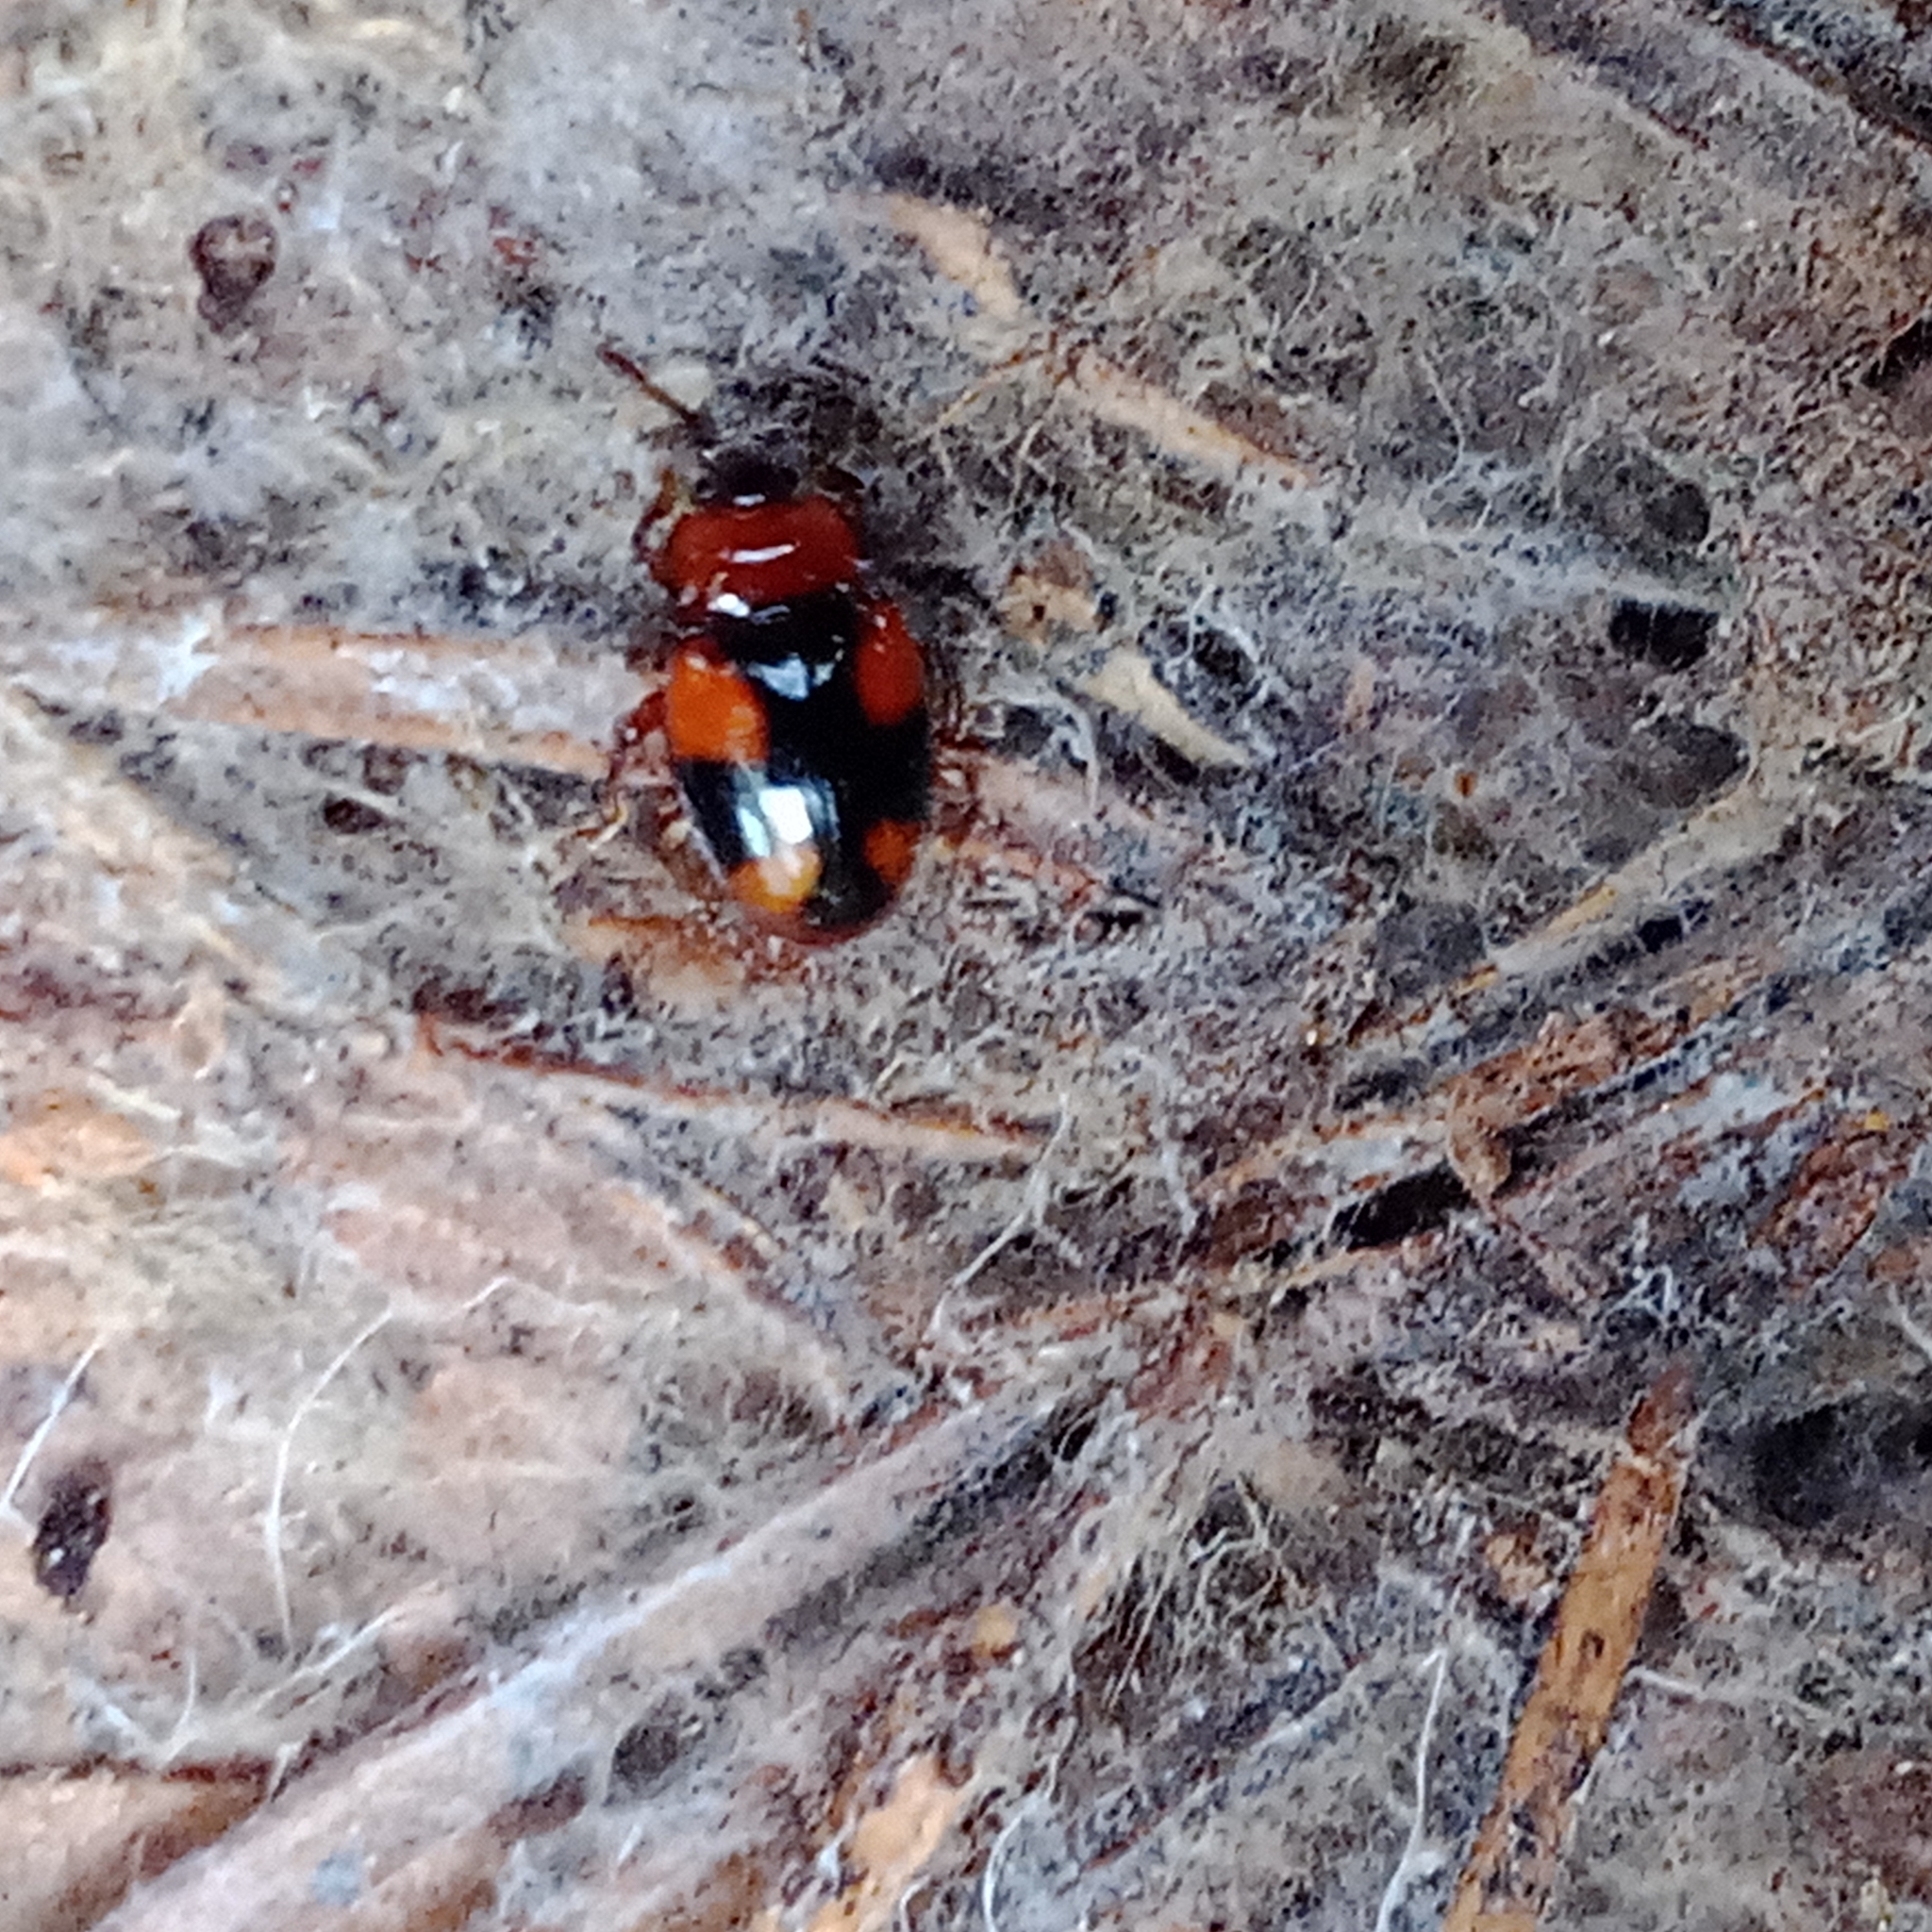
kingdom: Animalia
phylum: Arthropoda
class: Insecta
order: Coleoptera
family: Endomychidae
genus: Mycetina
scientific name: Mycetina cruciata
